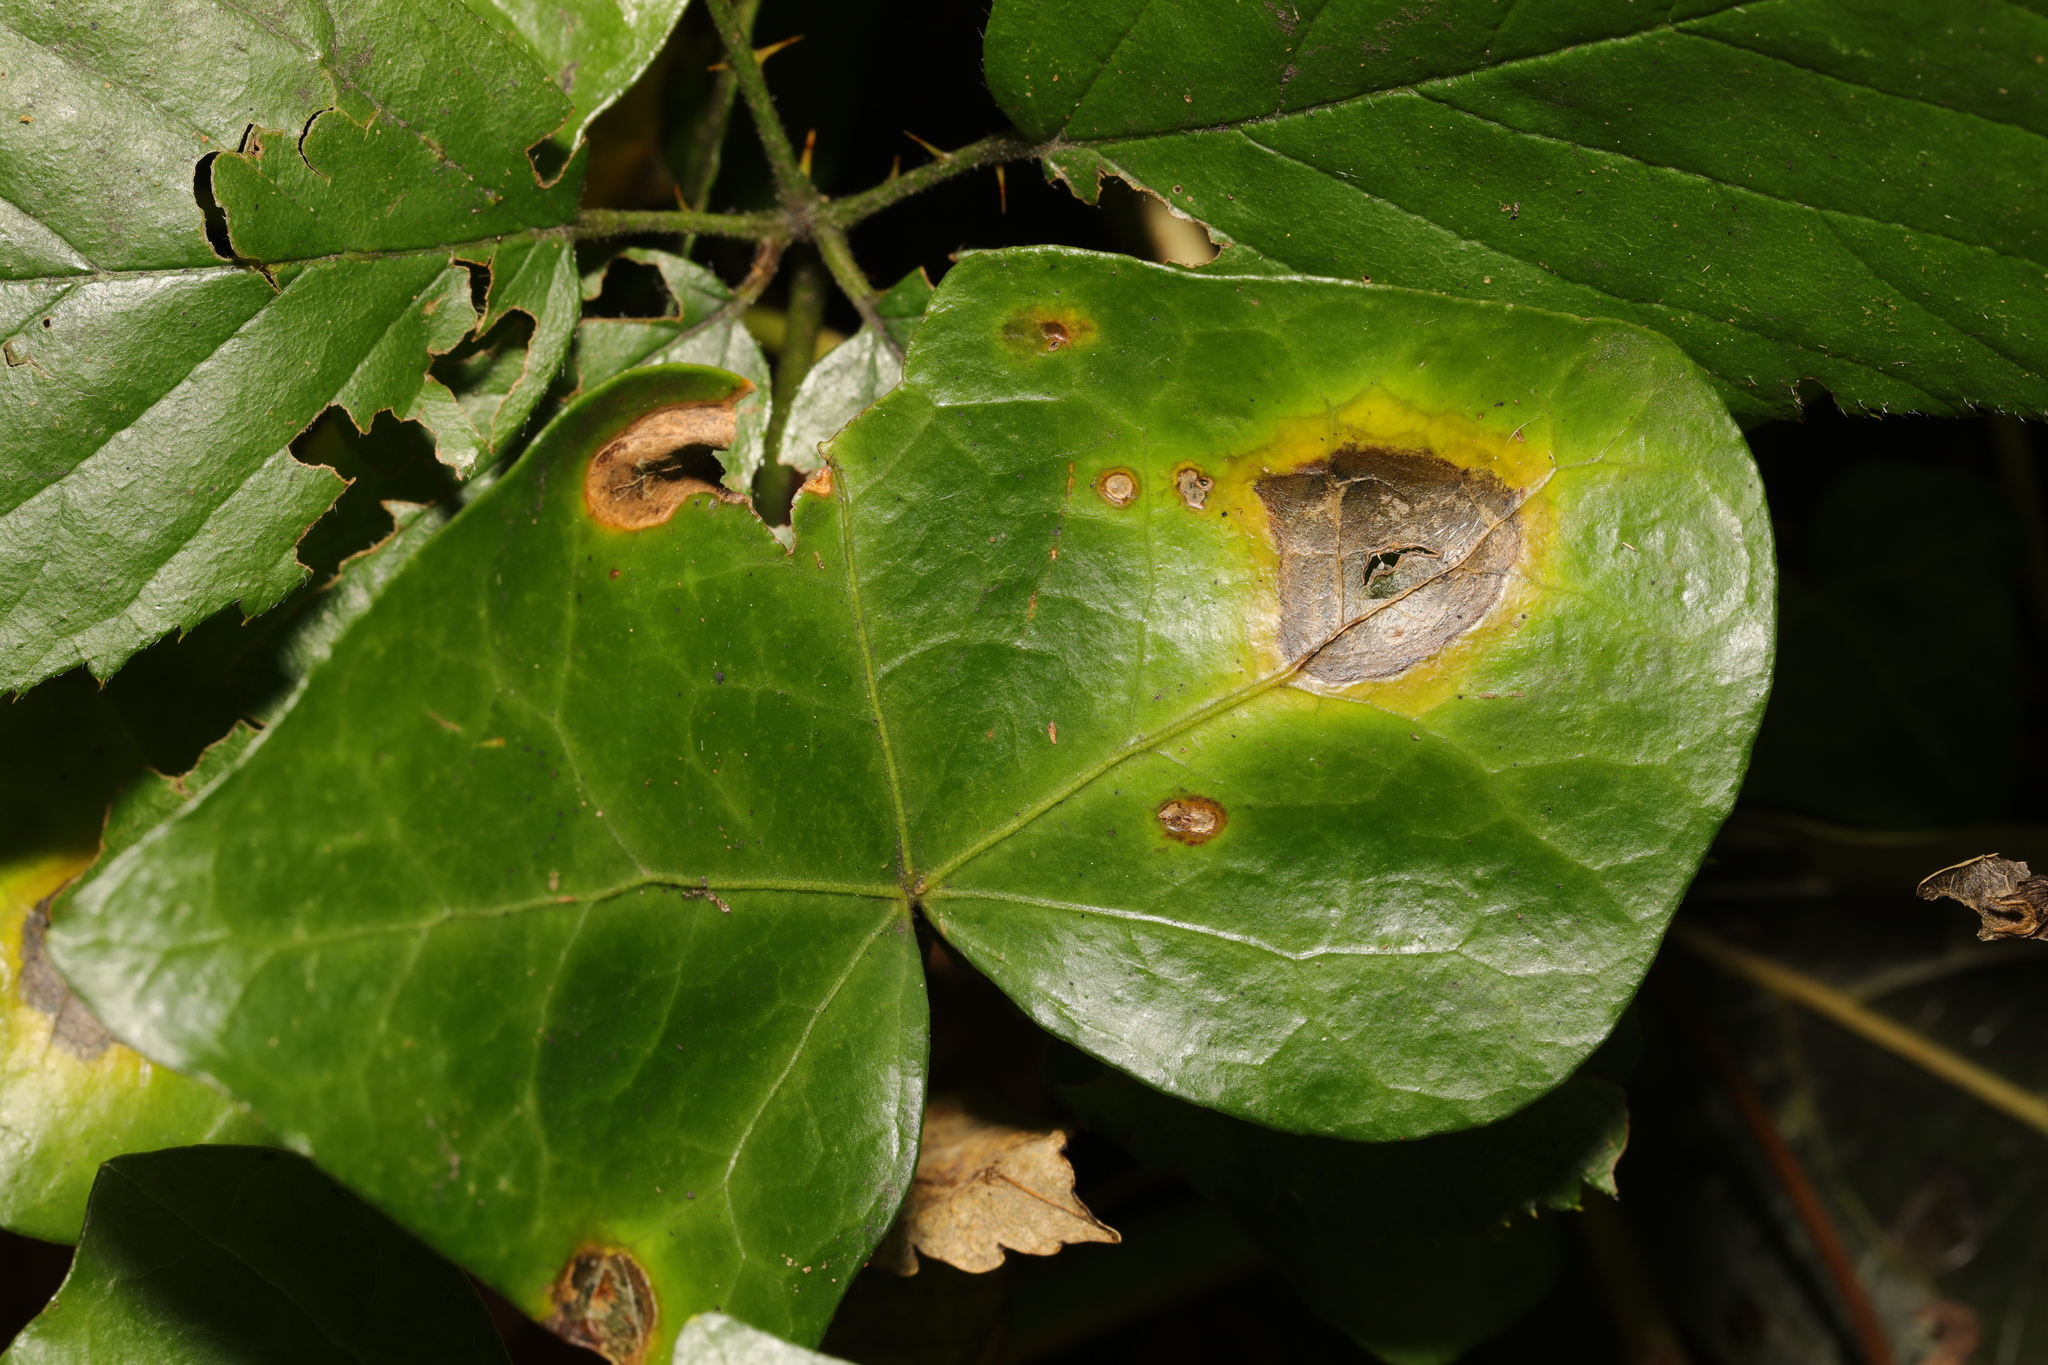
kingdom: Fungi
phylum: Ascomycota
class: Dothideomycetes
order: Pleosporales
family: Didymellaceae
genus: Boeremia
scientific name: Boeremia hedericola
